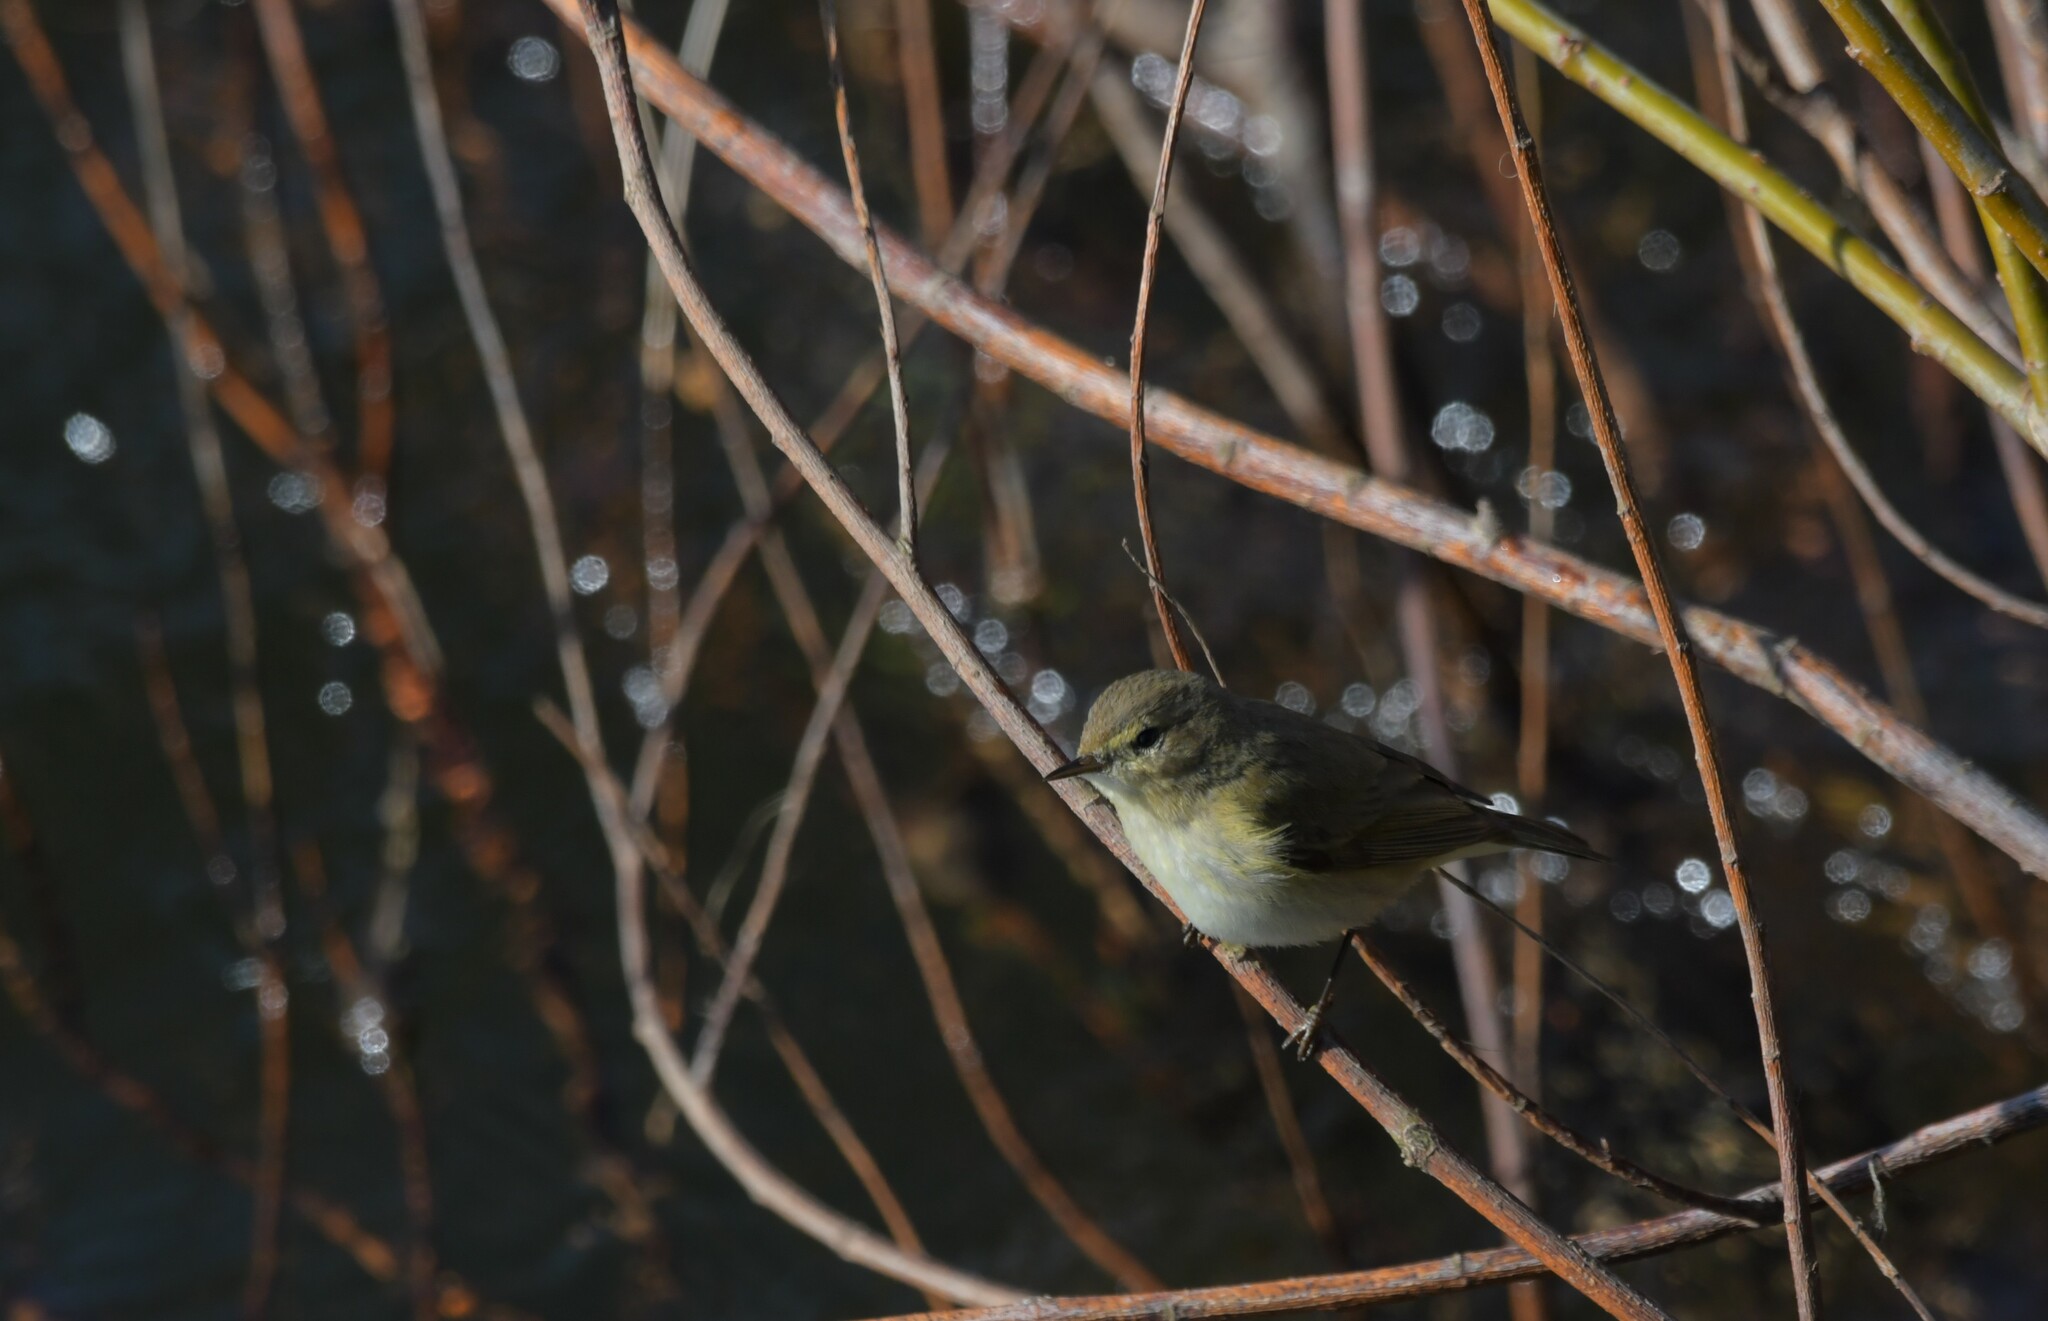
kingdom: Animalia
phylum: Chordata
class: Aves
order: Passeriformes
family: Phylloscopidae
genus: Phylloscopus
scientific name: Phylloscopus collybita
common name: Common chiffchaff
